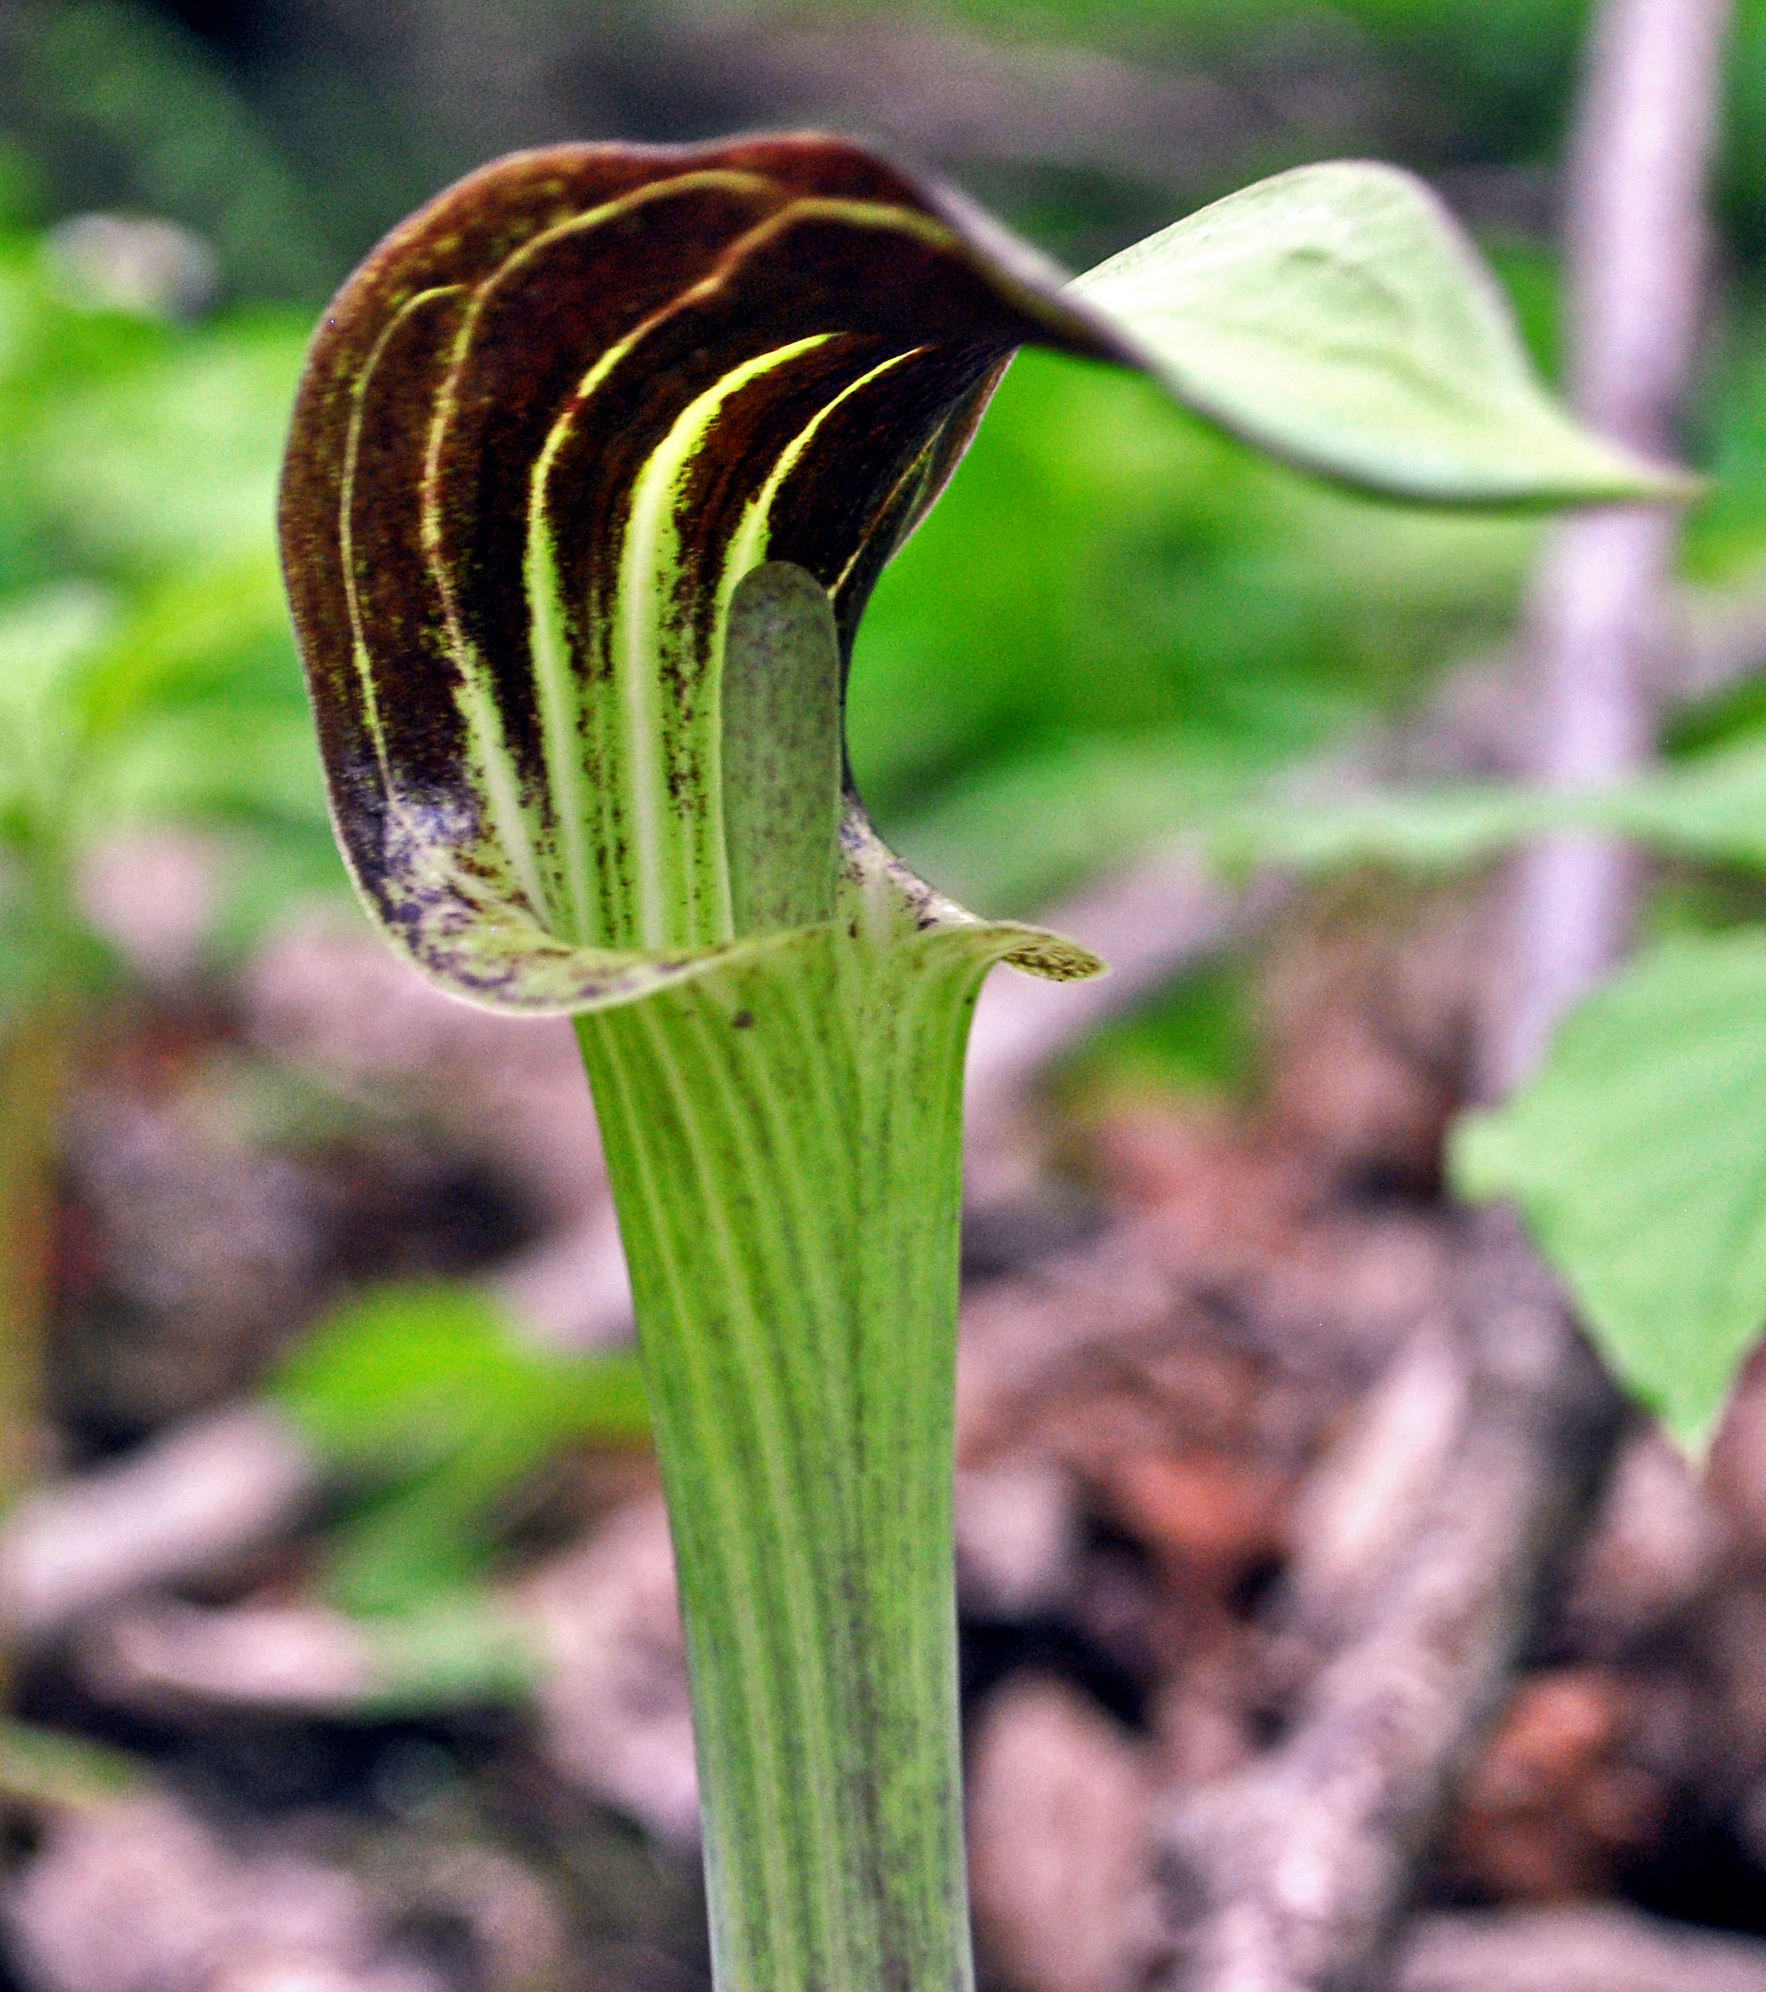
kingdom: Plantae
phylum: Tracheophyta
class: Liliopsida
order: Alismatales
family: Araceae
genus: Arisaema
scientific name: Arisaema triphyllum
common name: Jack-in-the-pulpit
